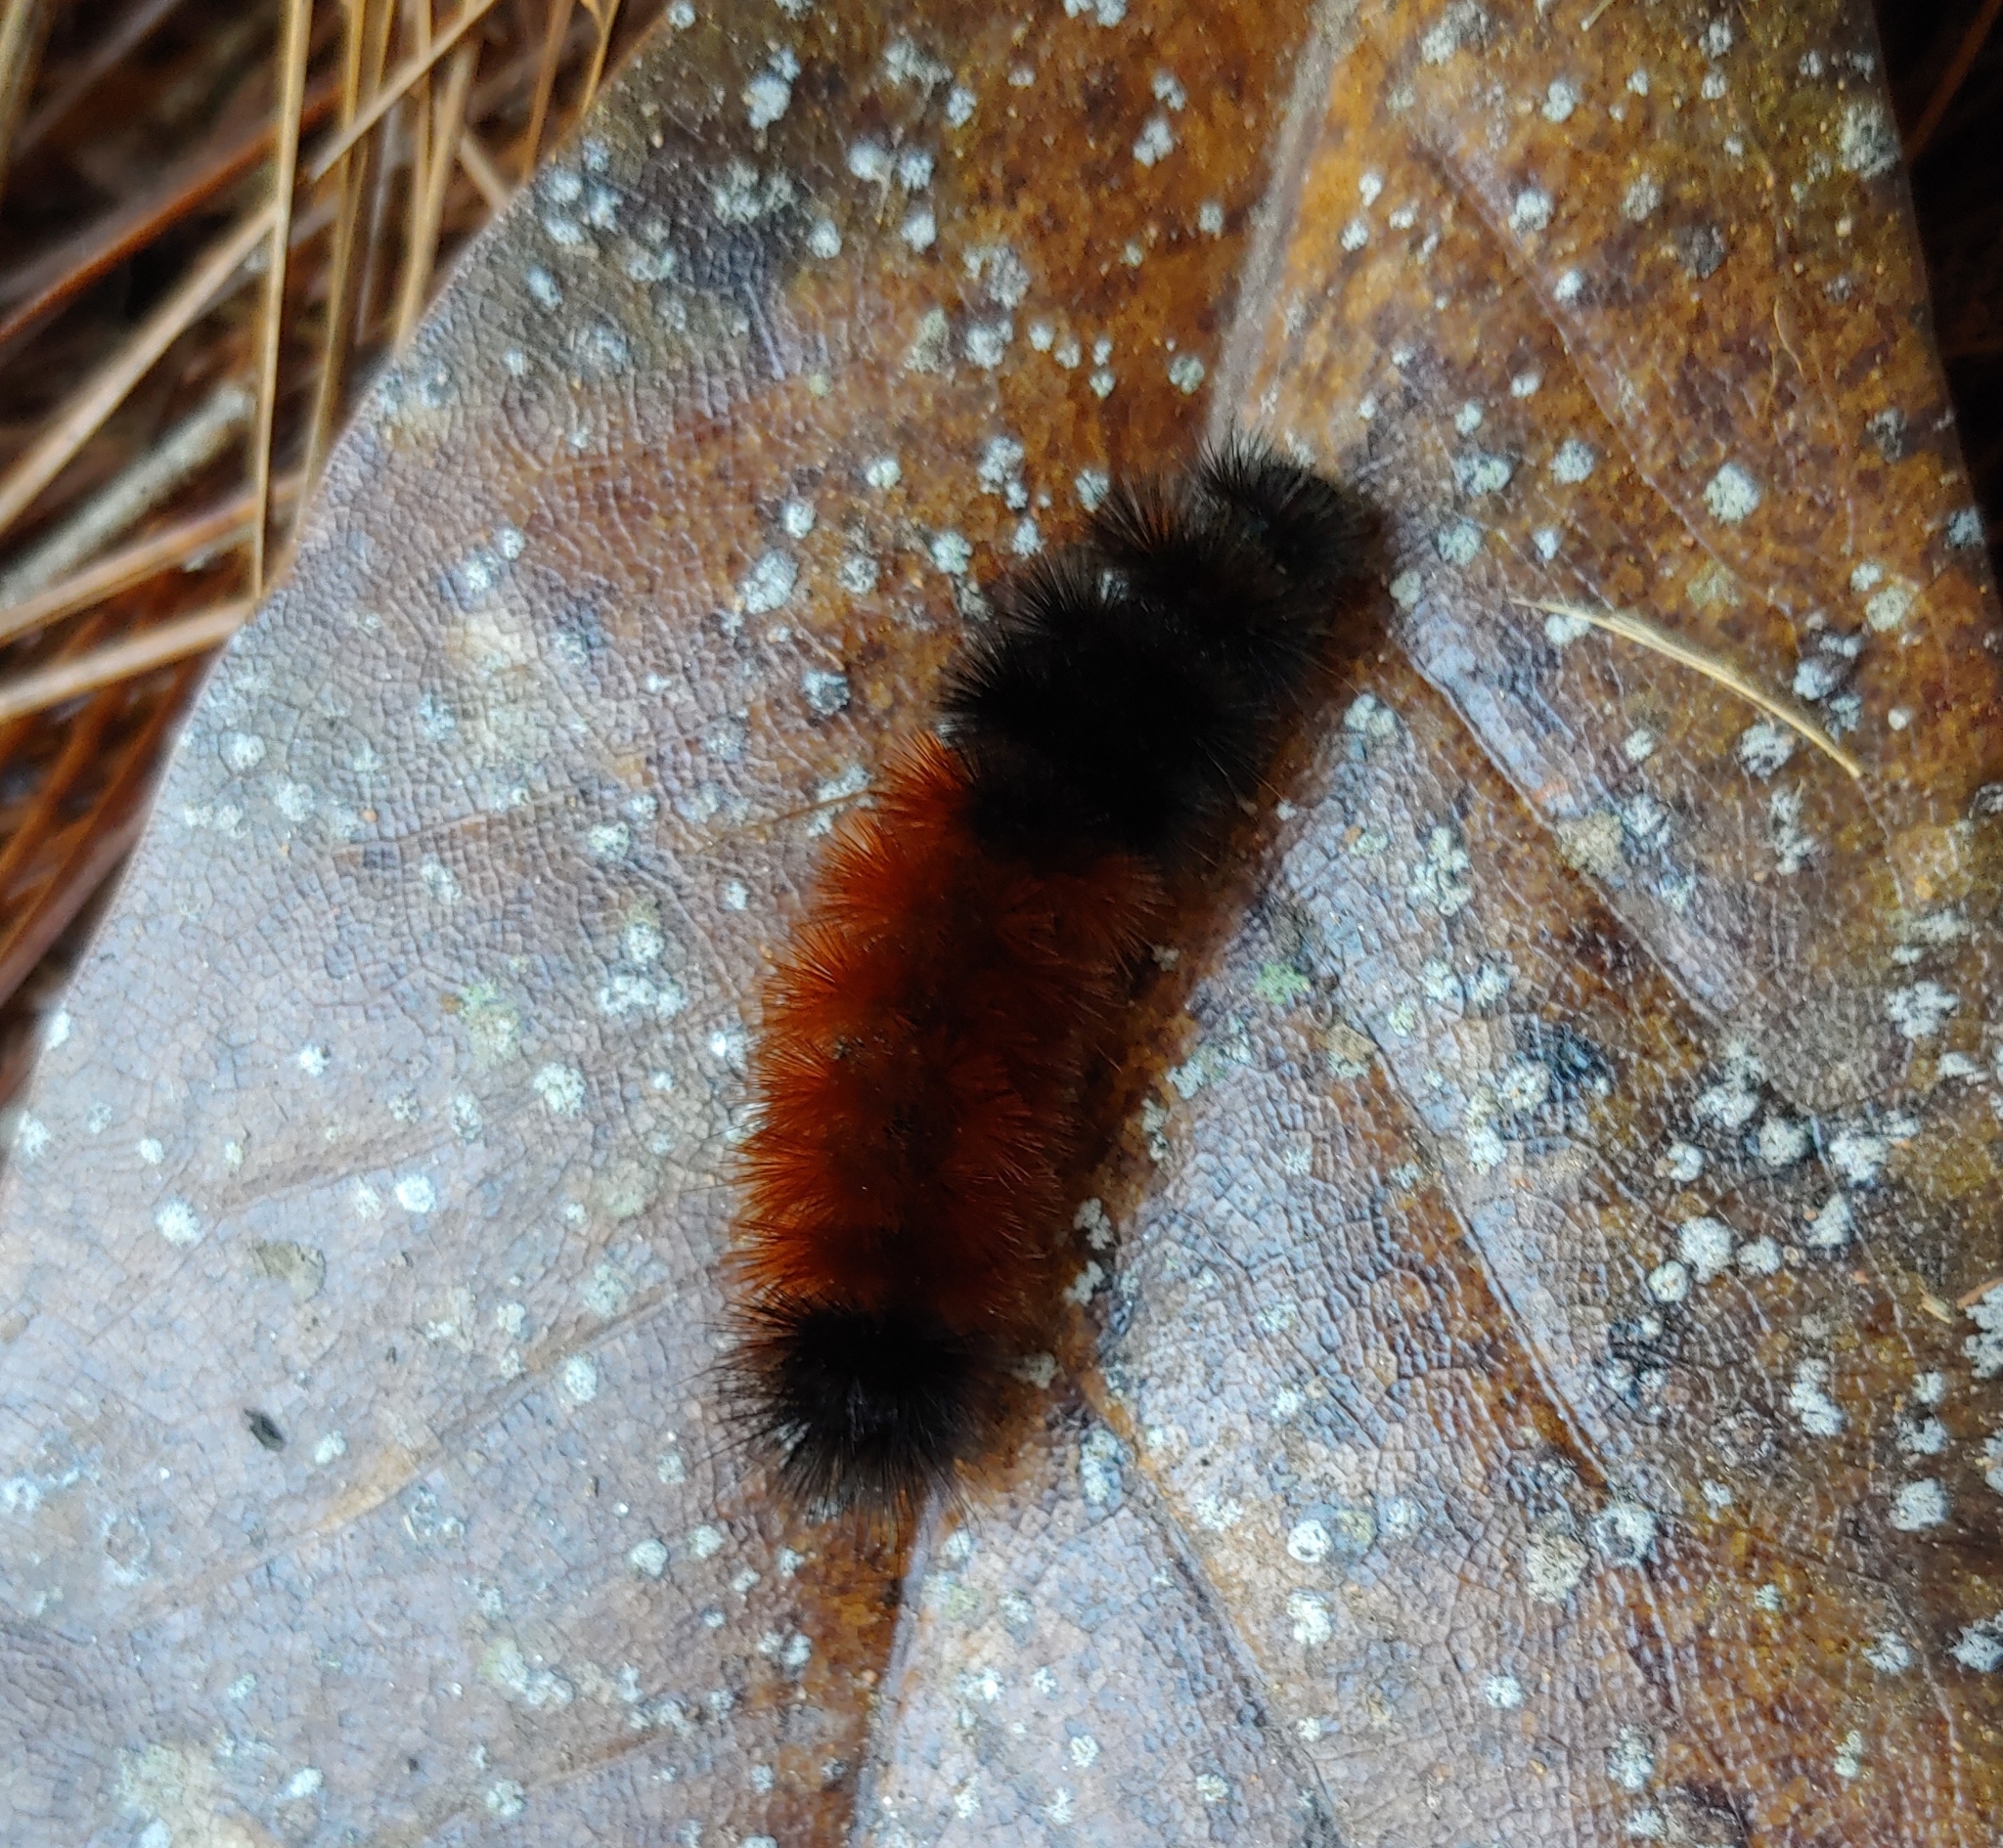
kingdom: Animalia
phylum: Arthropoda
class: Insecta
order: Lepidoptera
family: Erebidae
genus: Pyrrharctia
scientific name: Pyrrharctia isabella
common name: Isabella tiger moth
